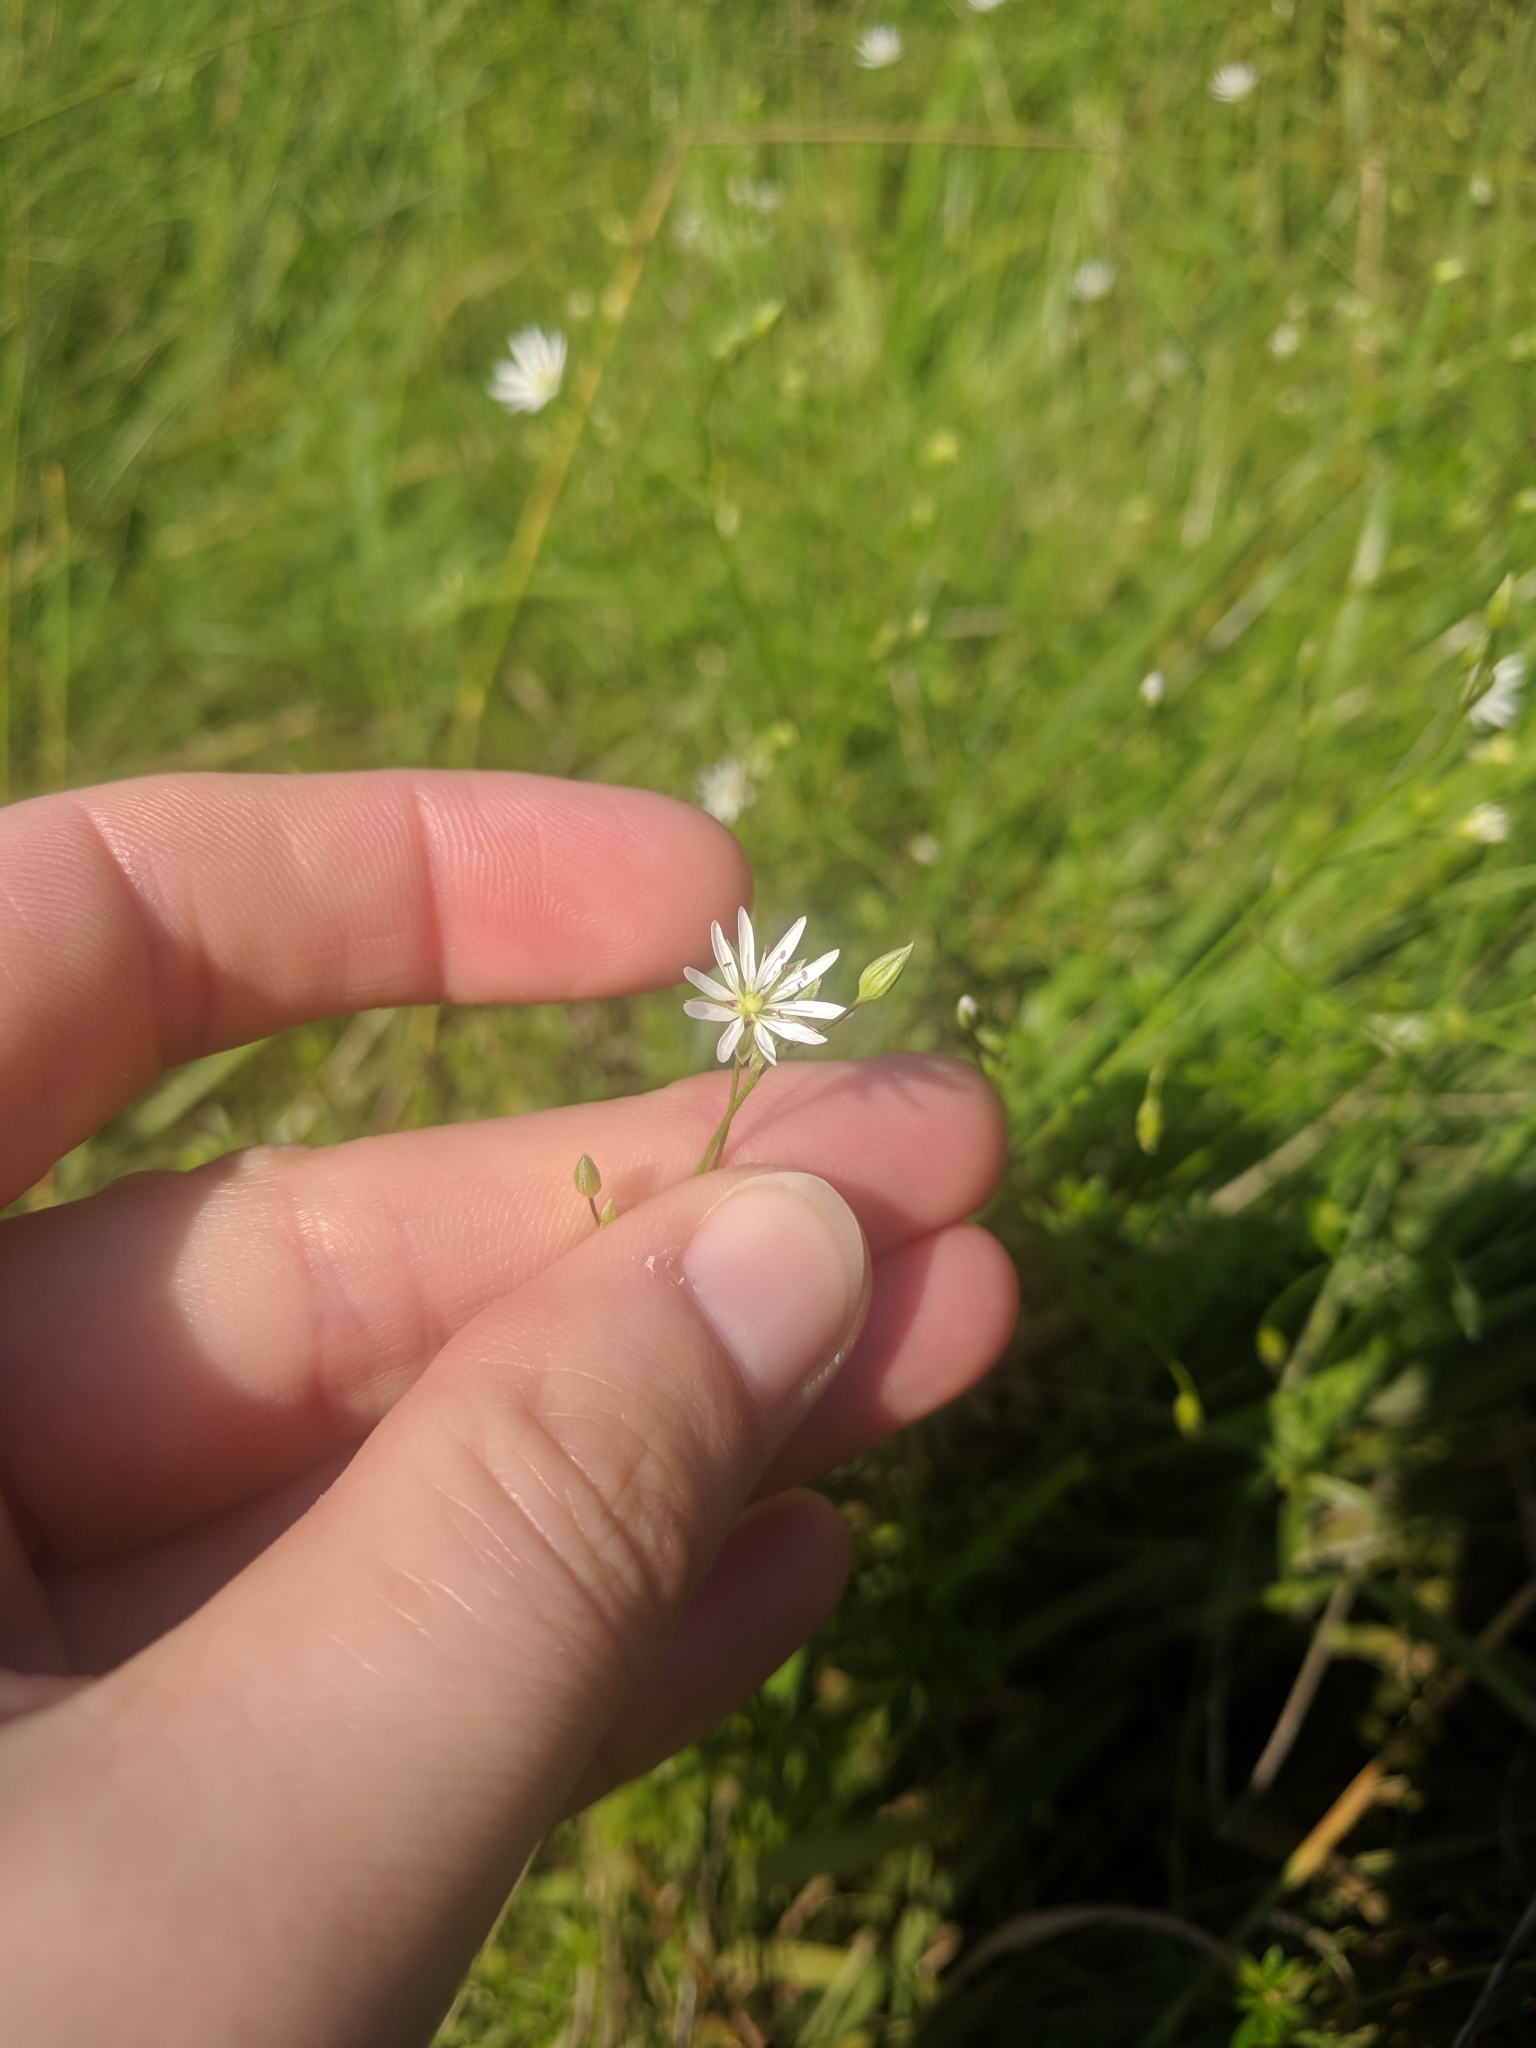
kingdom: Plantae
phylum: Tracheophyta
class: Magnoliopsida
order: Caryophyllales
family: Caryophyllaceae
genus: Stellaria
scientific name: Stellaria graminea
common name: Grass-like starwort
